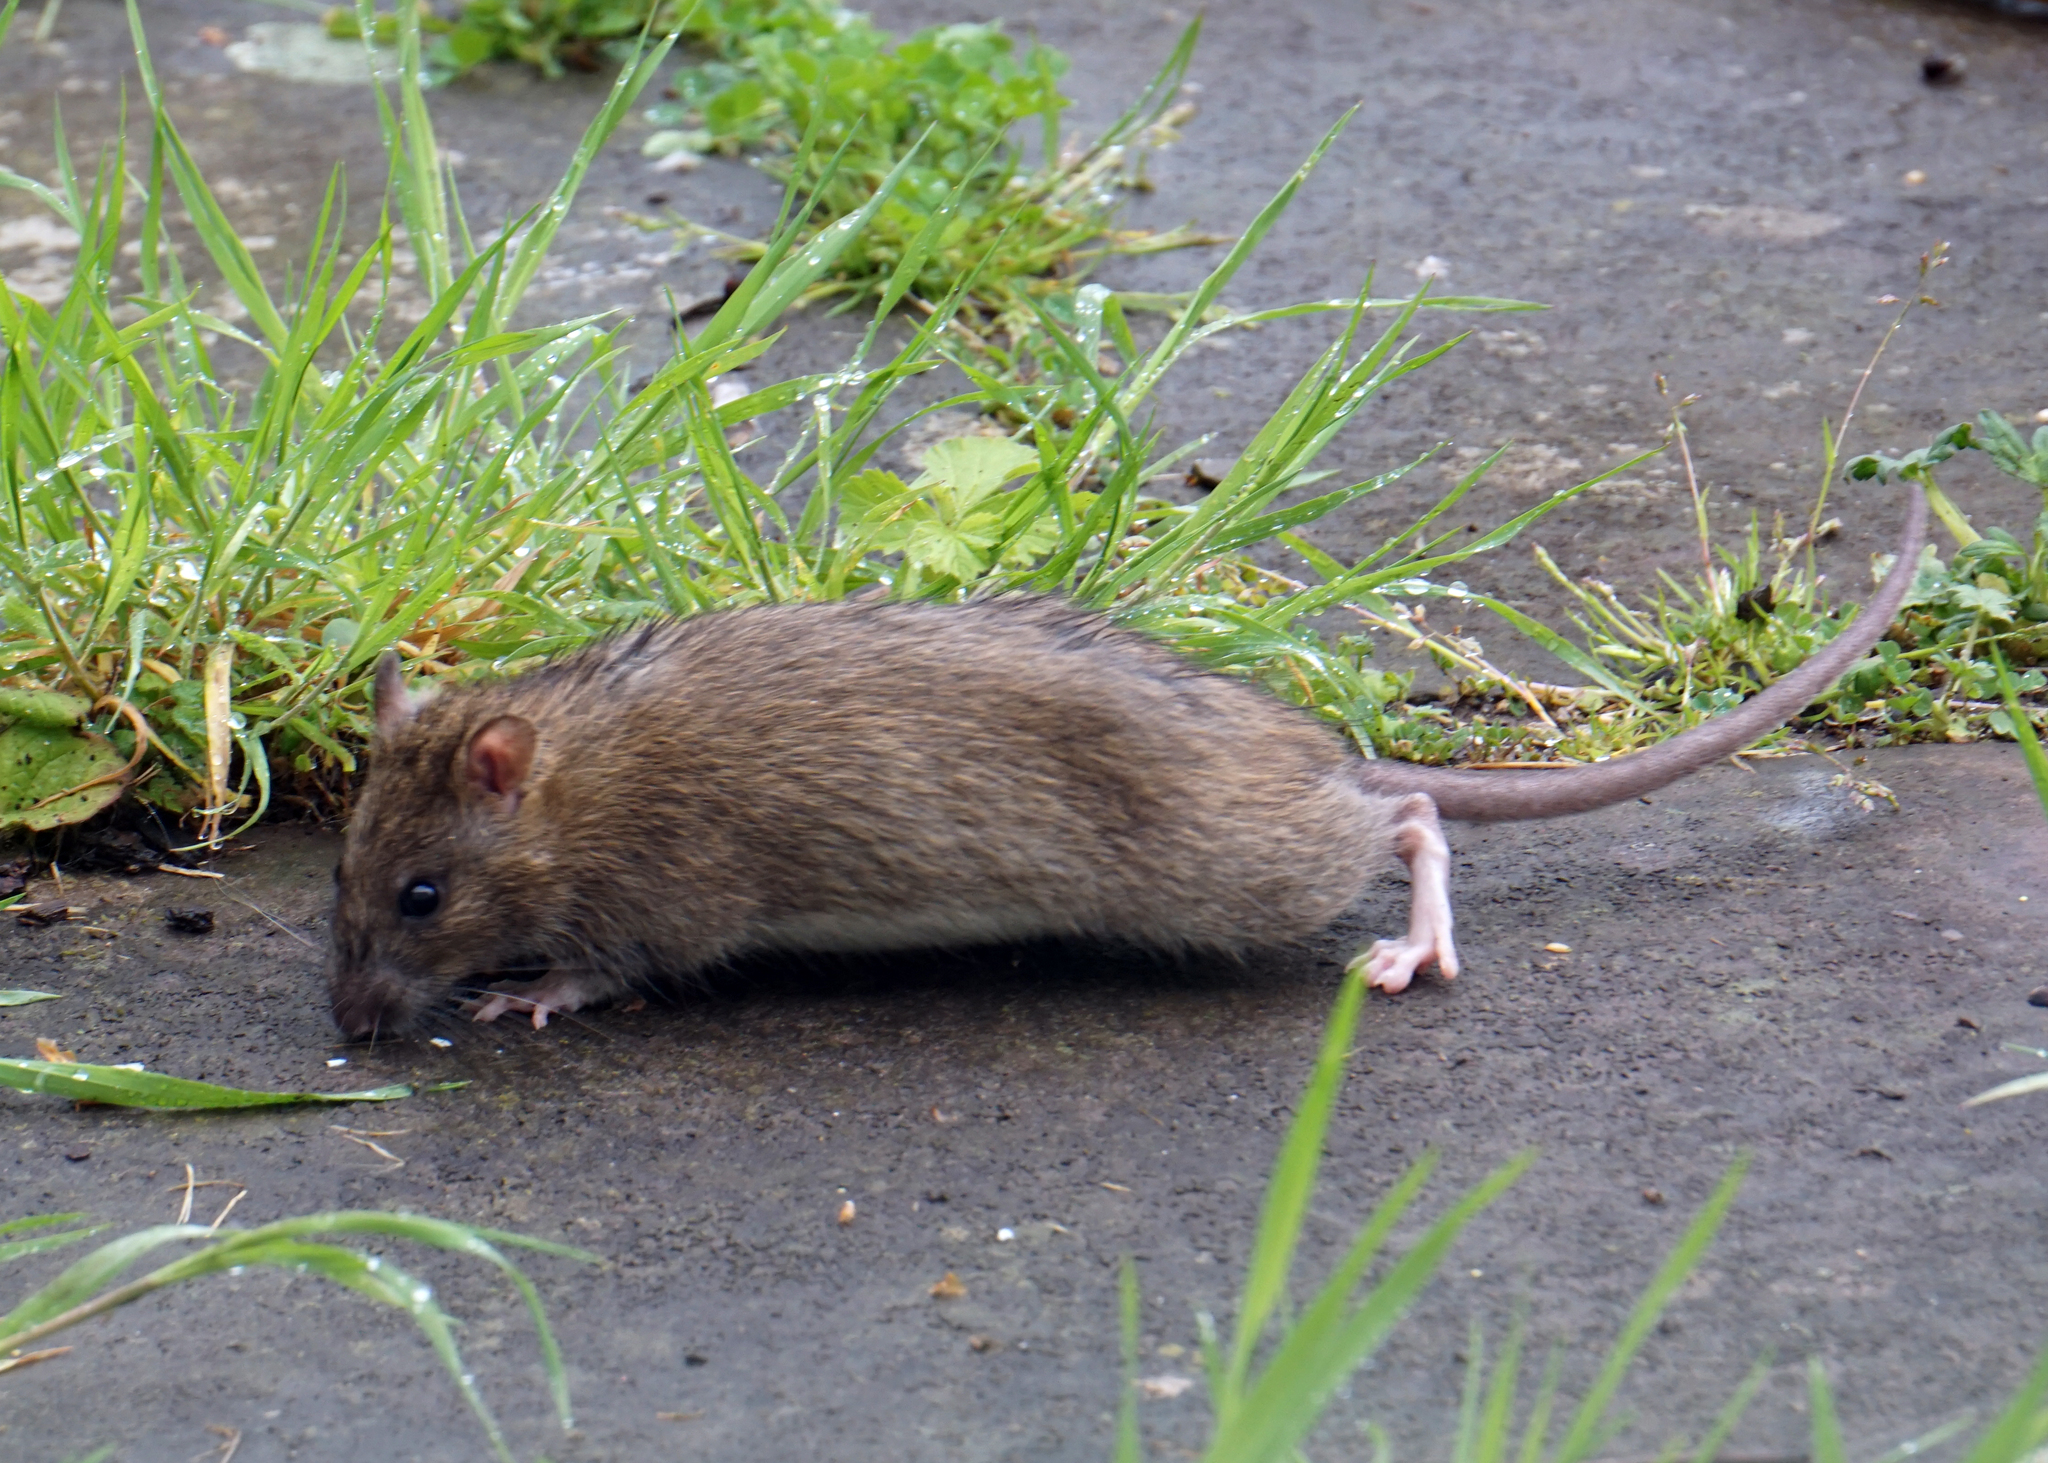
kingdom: Animalia
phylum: Chordata
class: Mammalia
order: Rodentia
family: Muridae
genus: Rattus
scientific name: Rattus norvegicus
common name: Brown rat
